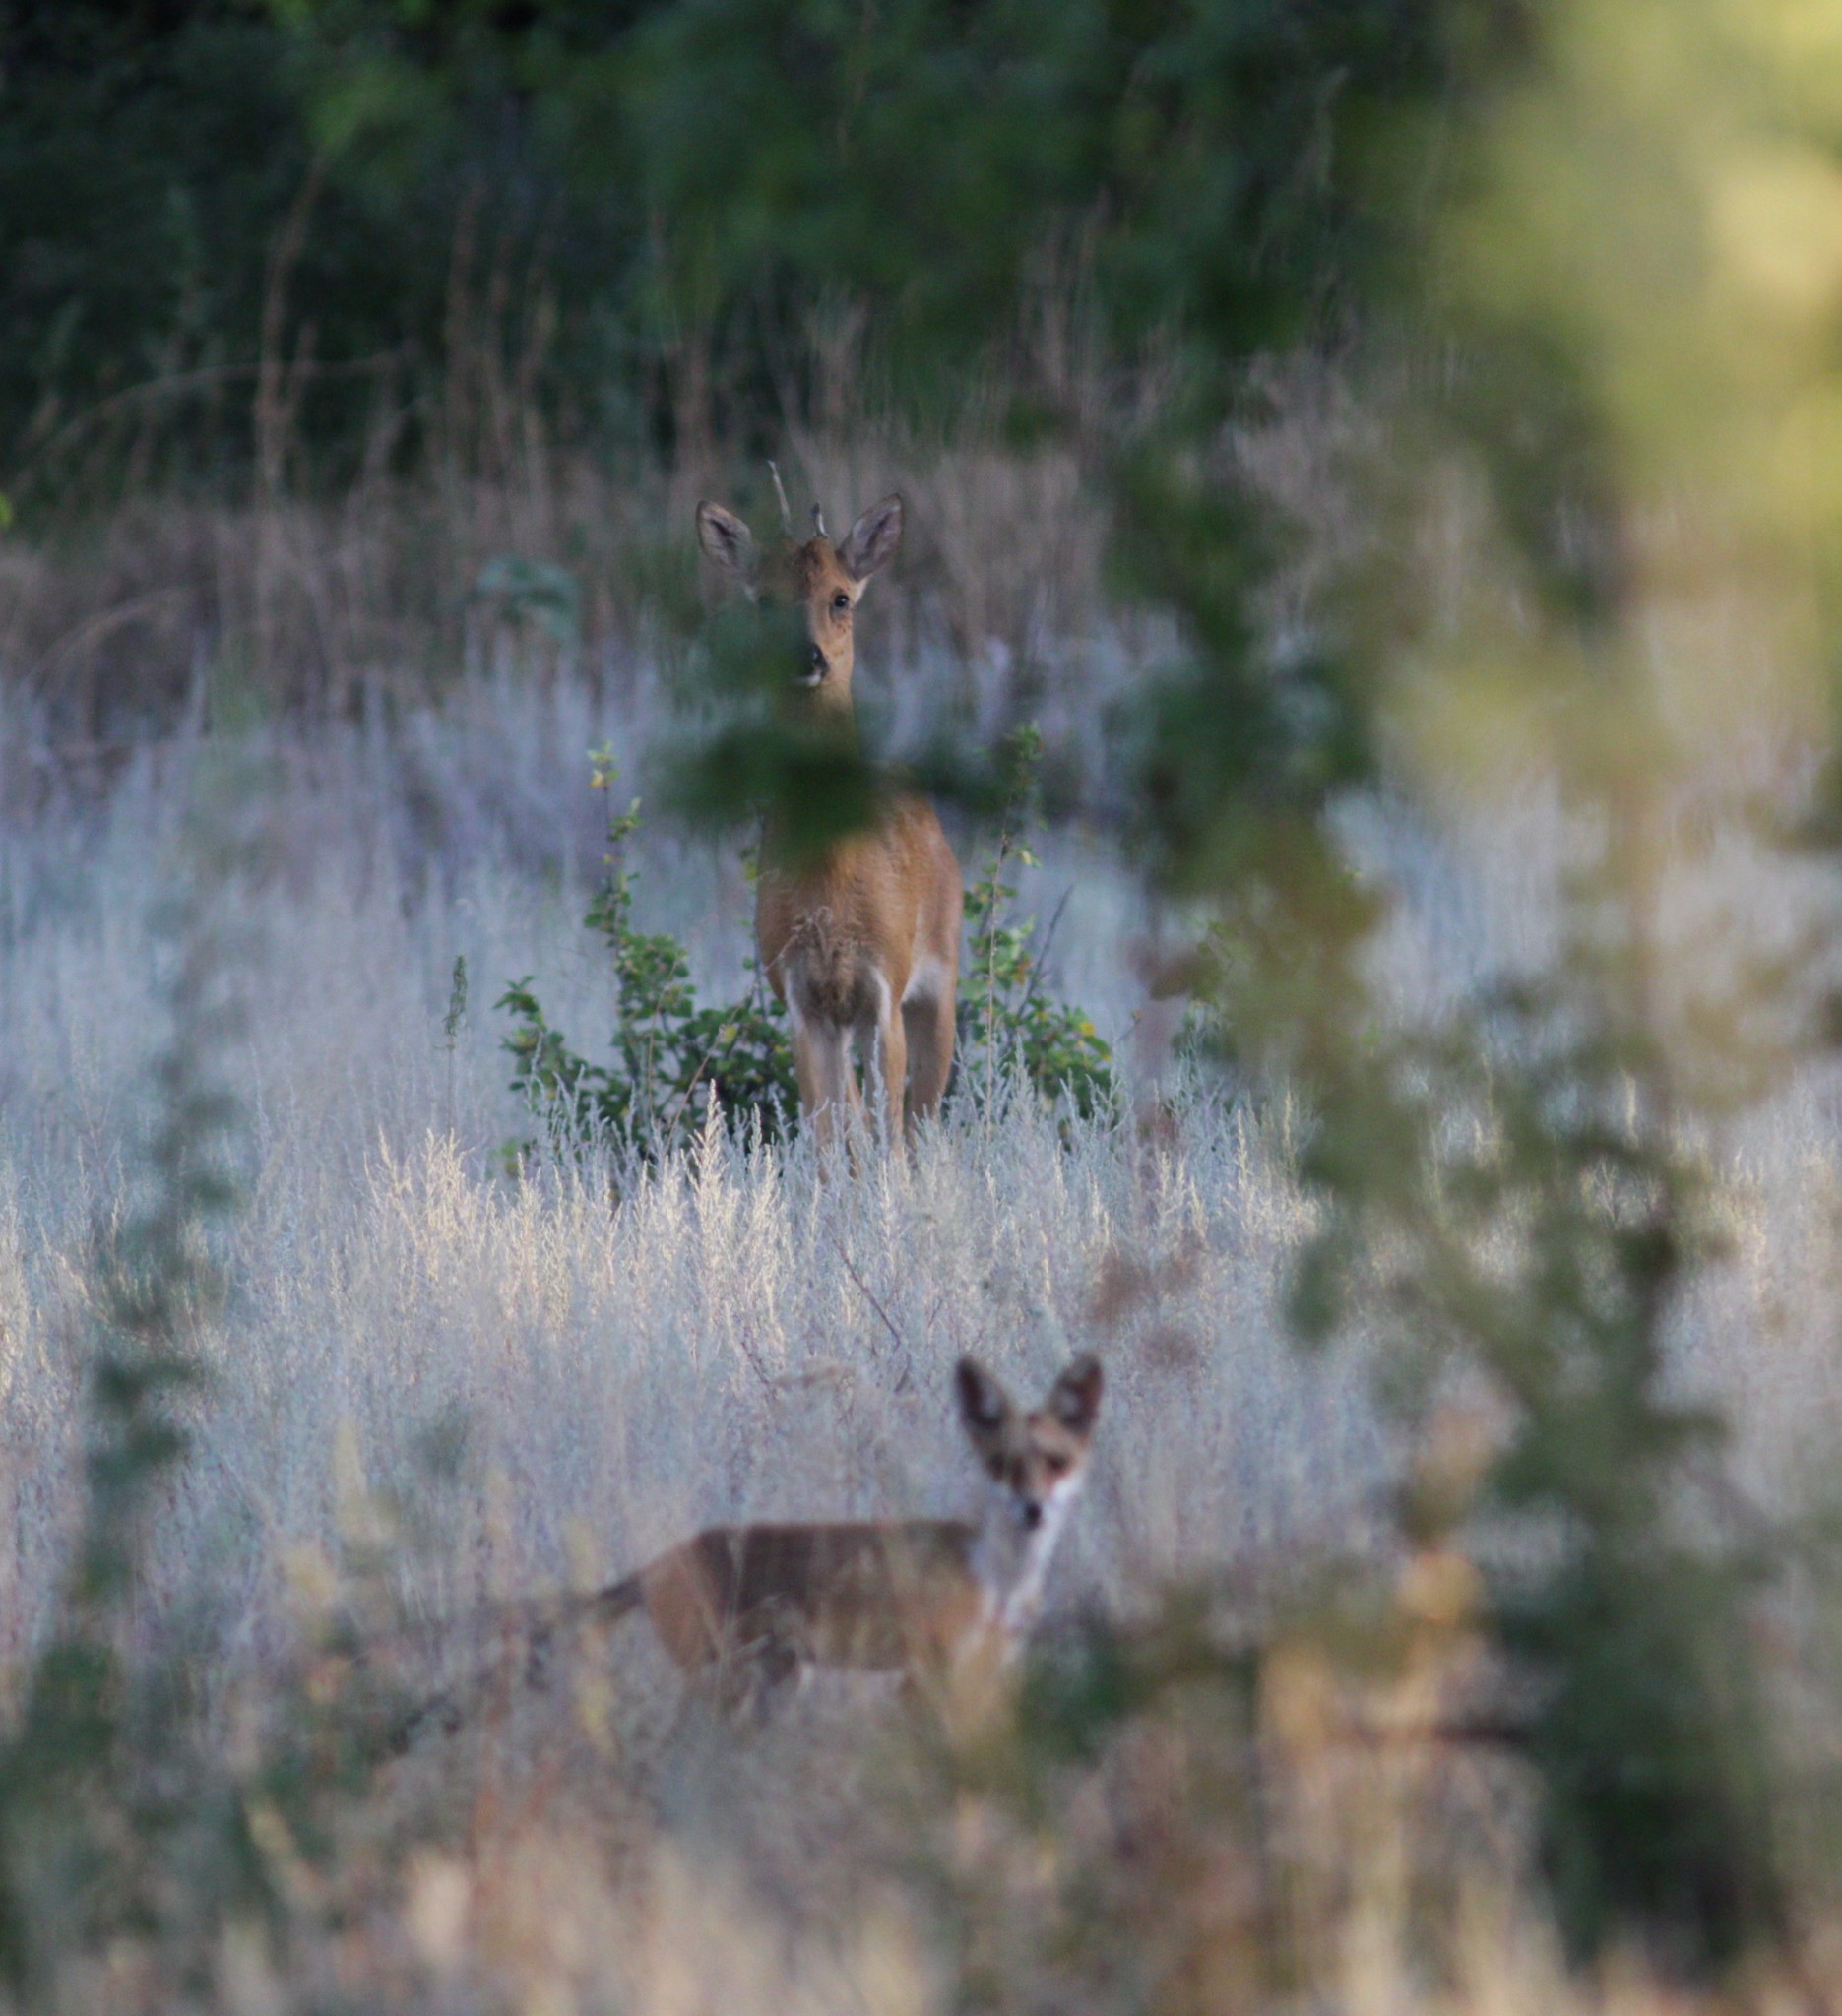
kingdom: Animalia
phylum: Chordata
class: Mammalia
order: Carnivora
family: Canidae
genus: Vulpes
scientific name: Vulpes vulpes
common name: Red fox
